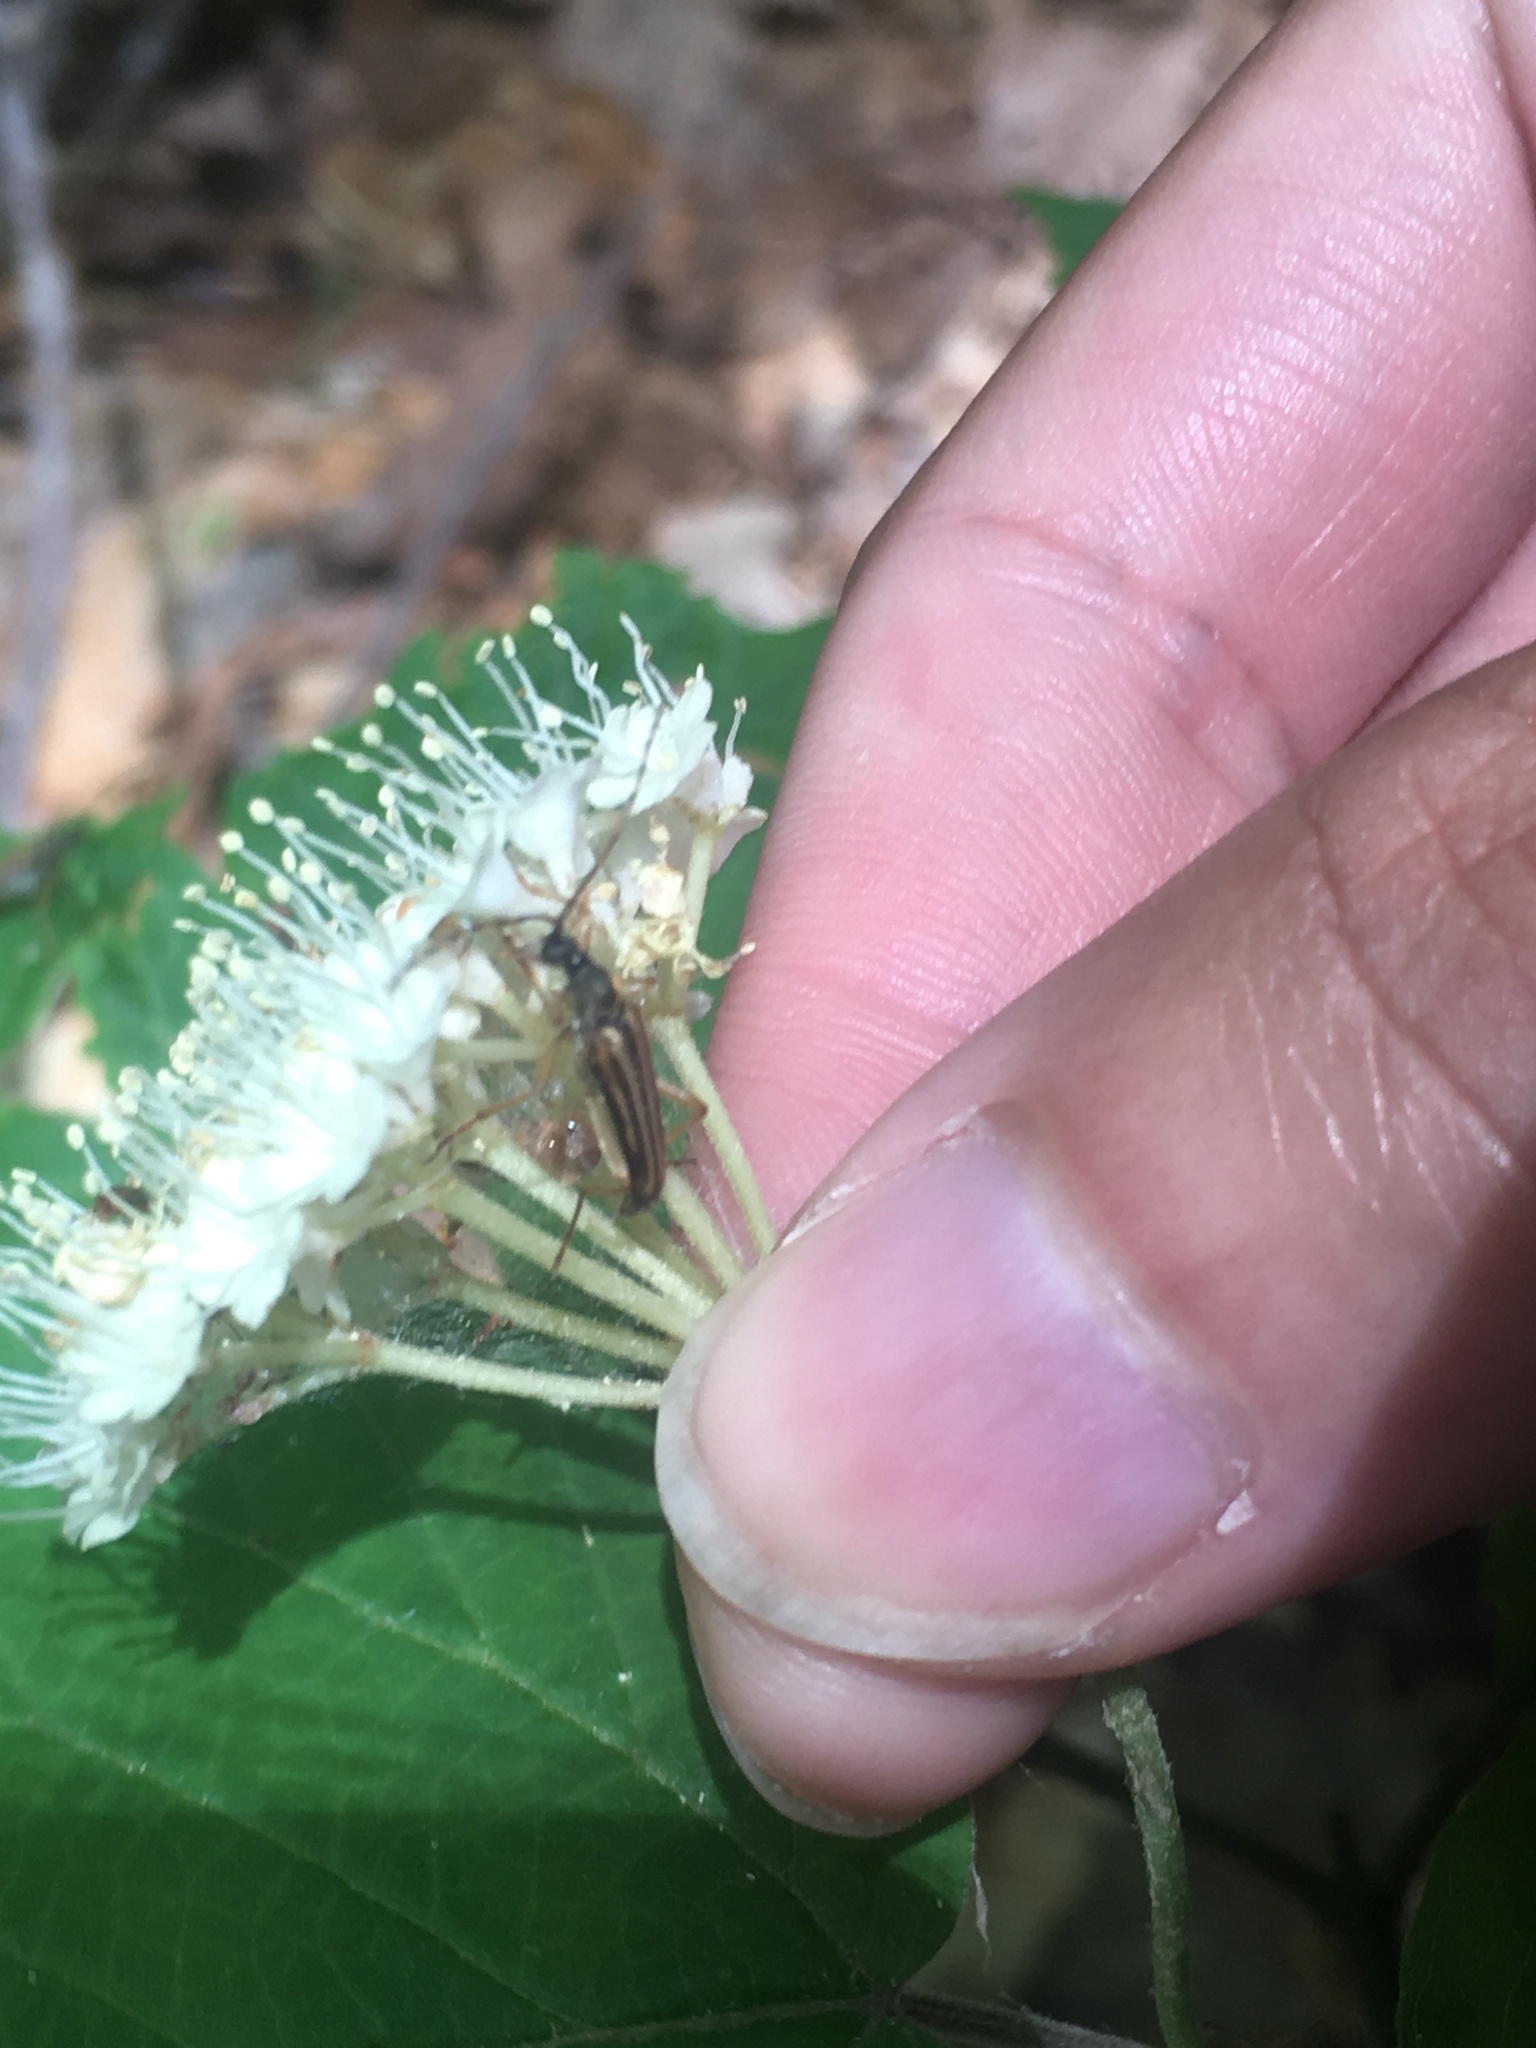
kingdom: Animalia
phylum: Arthropoda
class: Insecta
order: Coleoptera
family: Cerambycidae
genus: Analeptura
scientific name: Analeptura lineola
